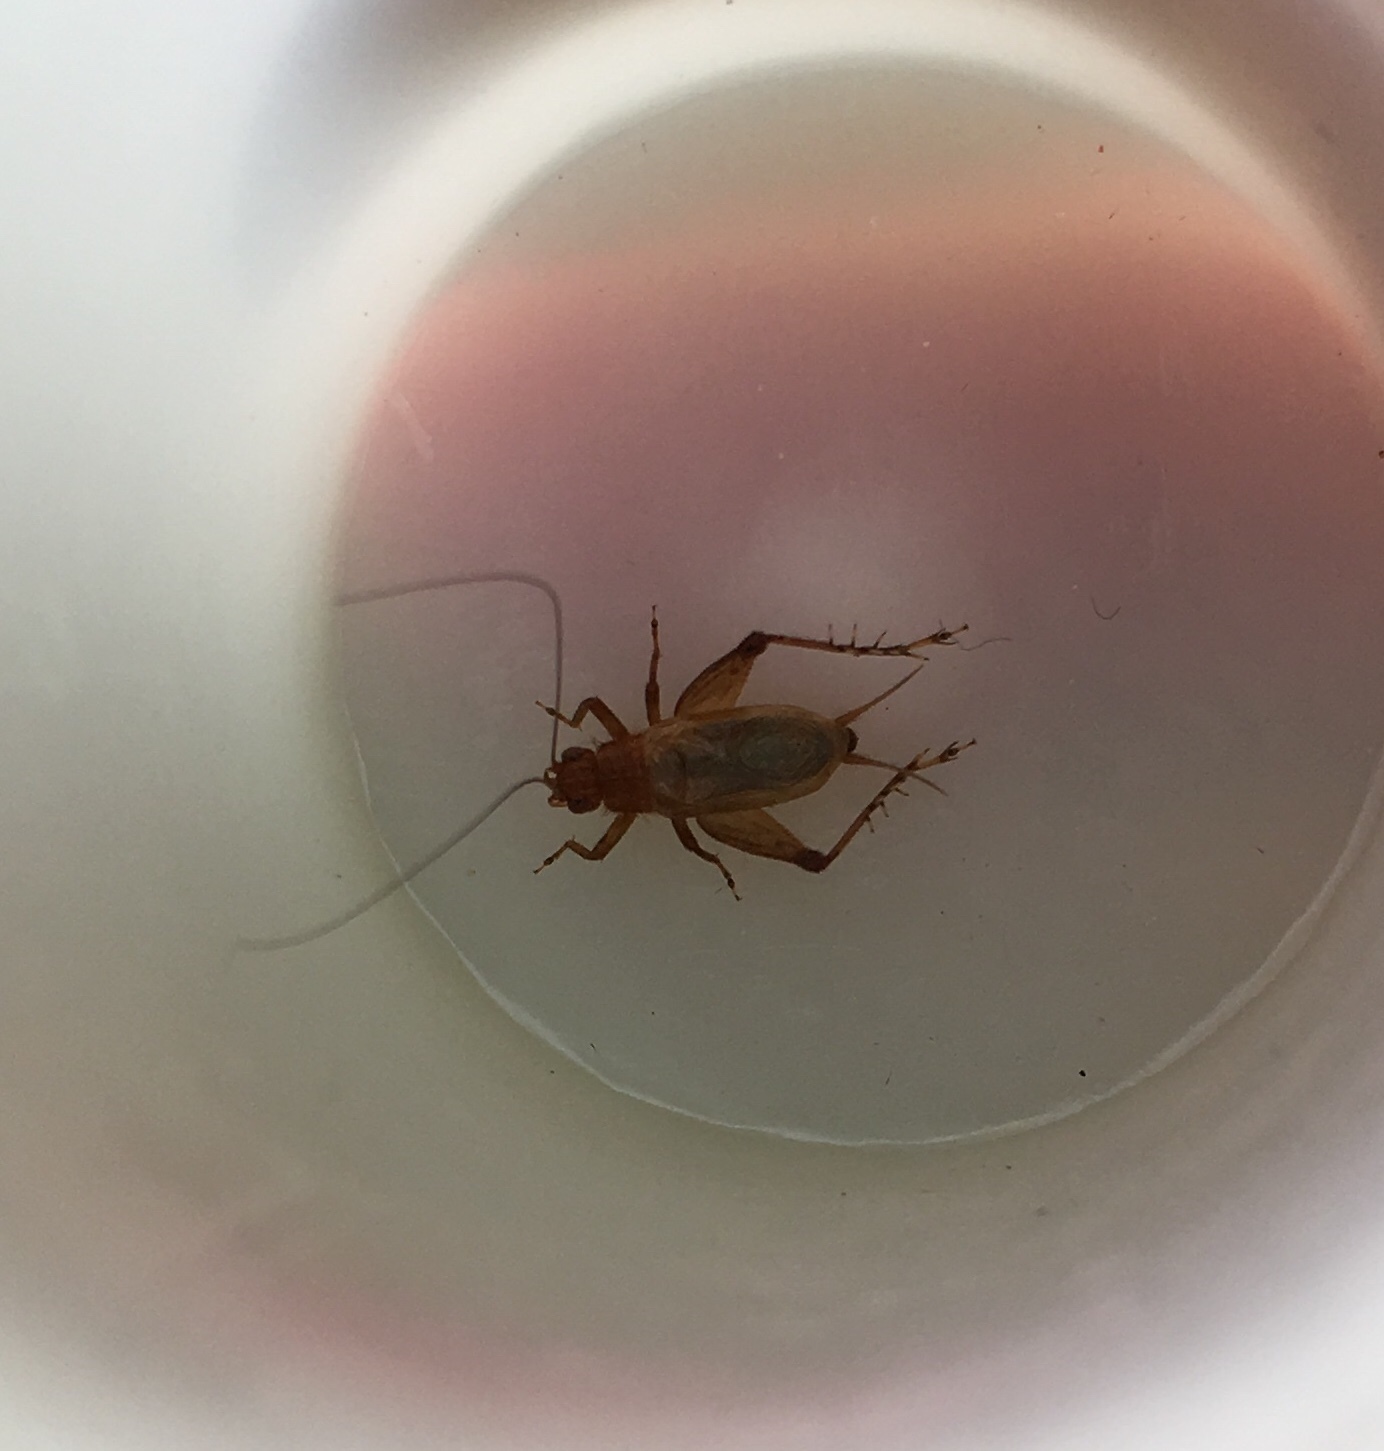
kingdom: Animalia
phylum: Arthropoda
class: Insecta
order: Orthoptera
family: Trigonidiidae
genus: Anaxipha
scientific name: Anaxipha vernalis
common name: Spring trig
